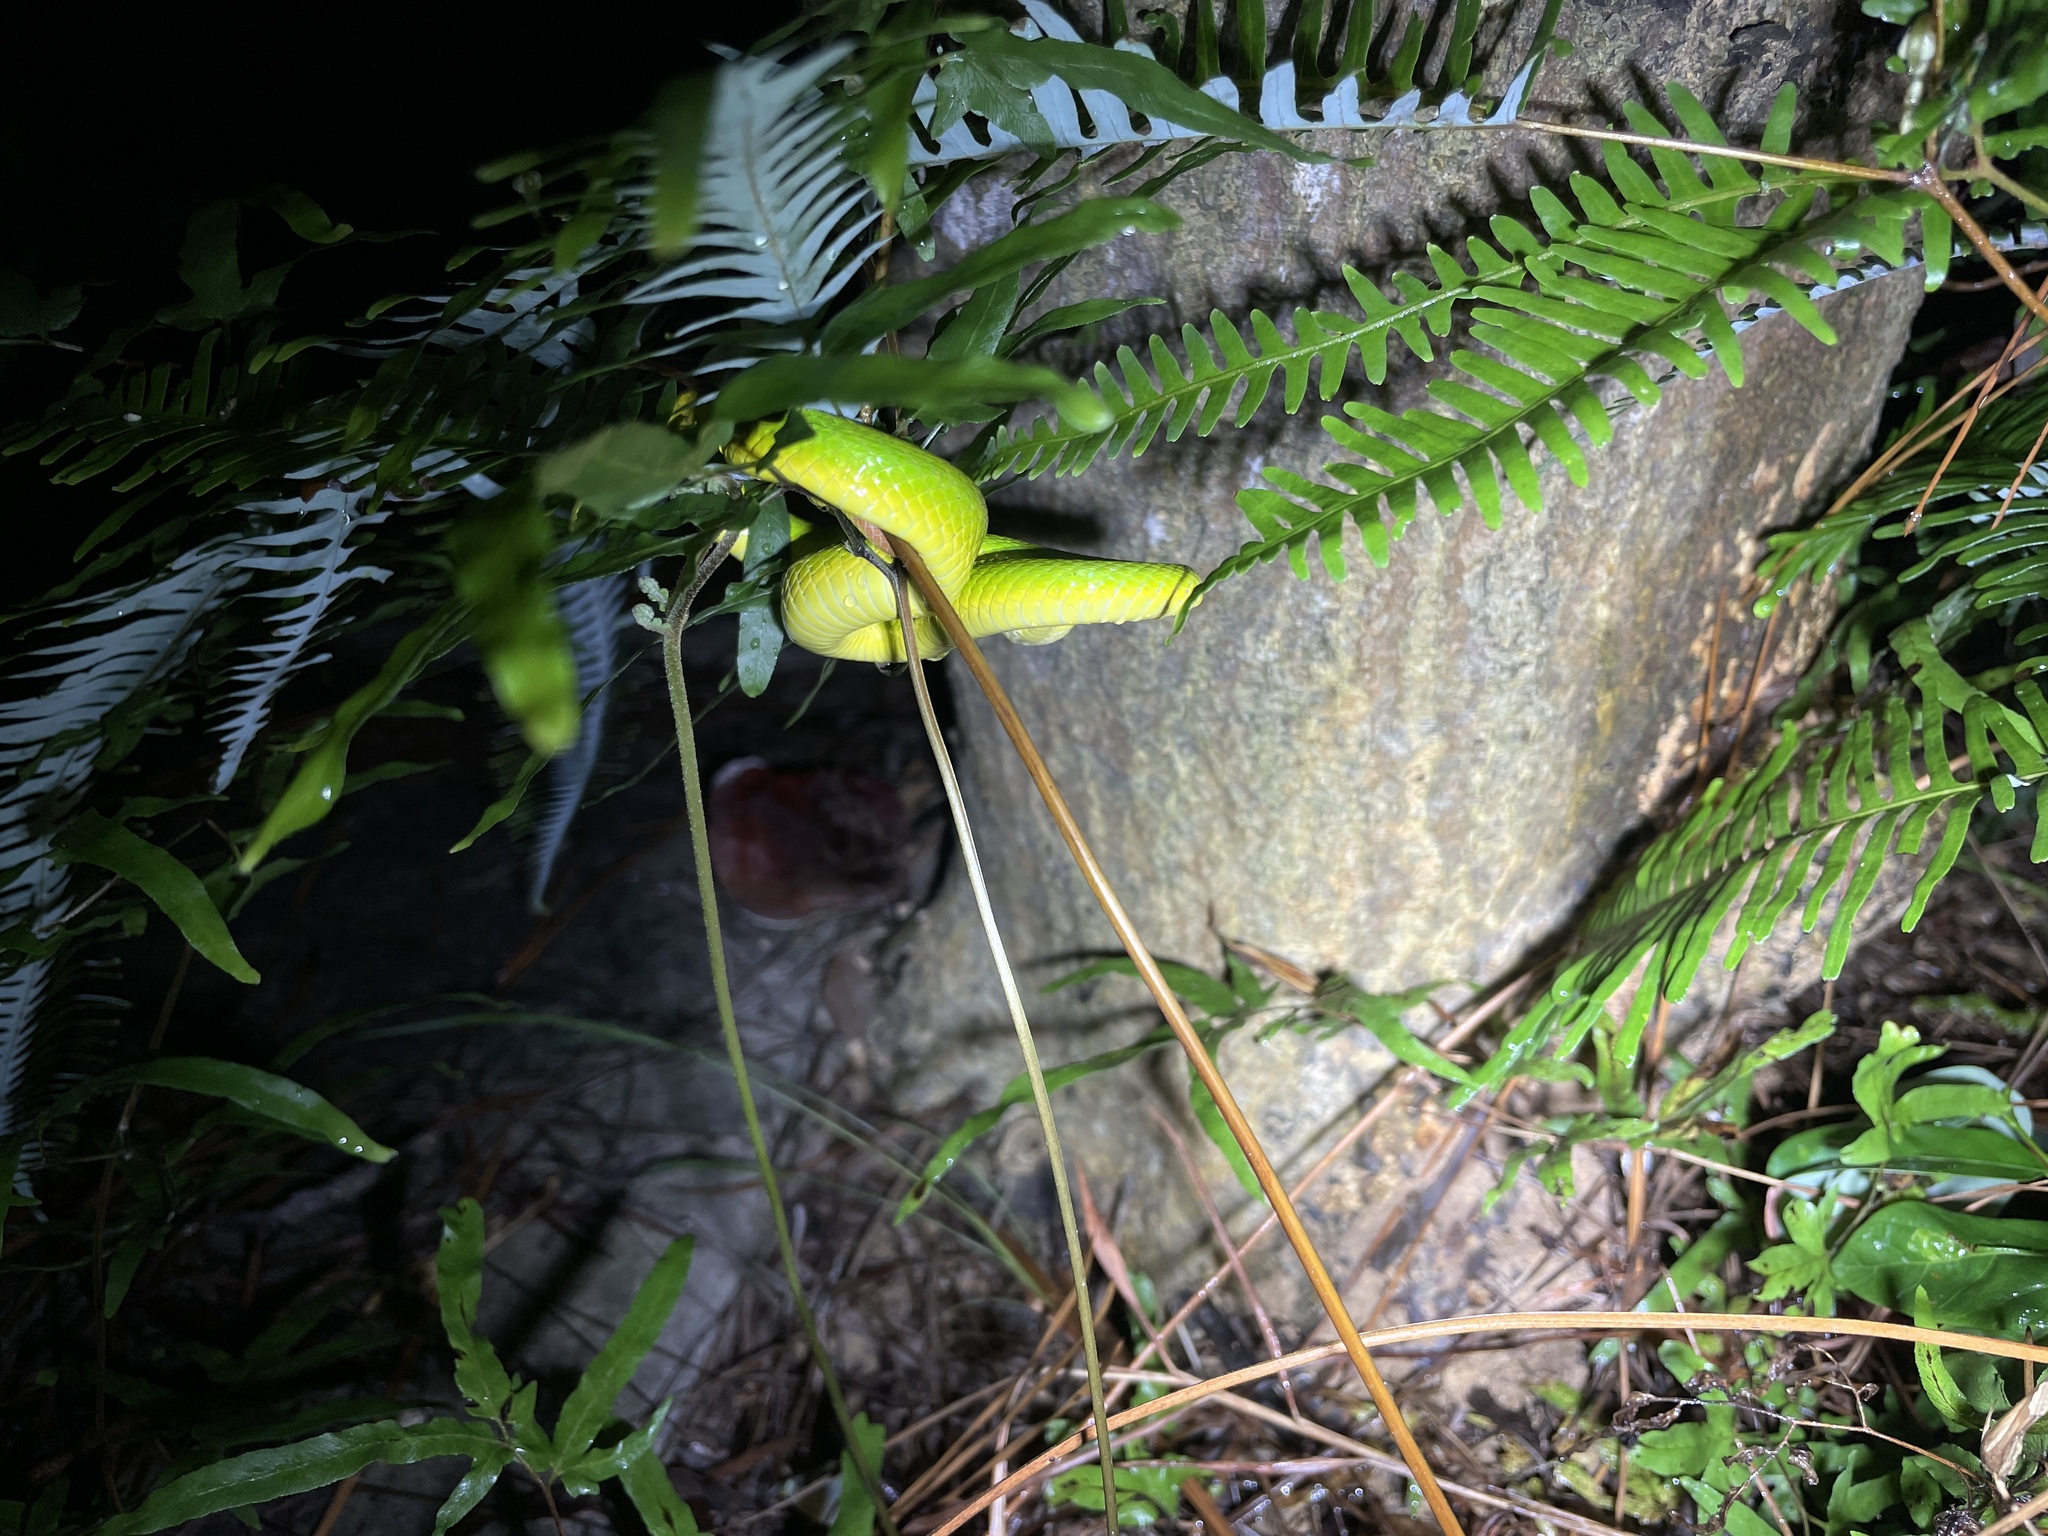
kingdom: Animalia
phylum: Chordata
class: Squamata
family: Viperidae
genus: Trimeresurus
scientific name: Trimeresurus albolabris
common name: White-lipped pitviper
